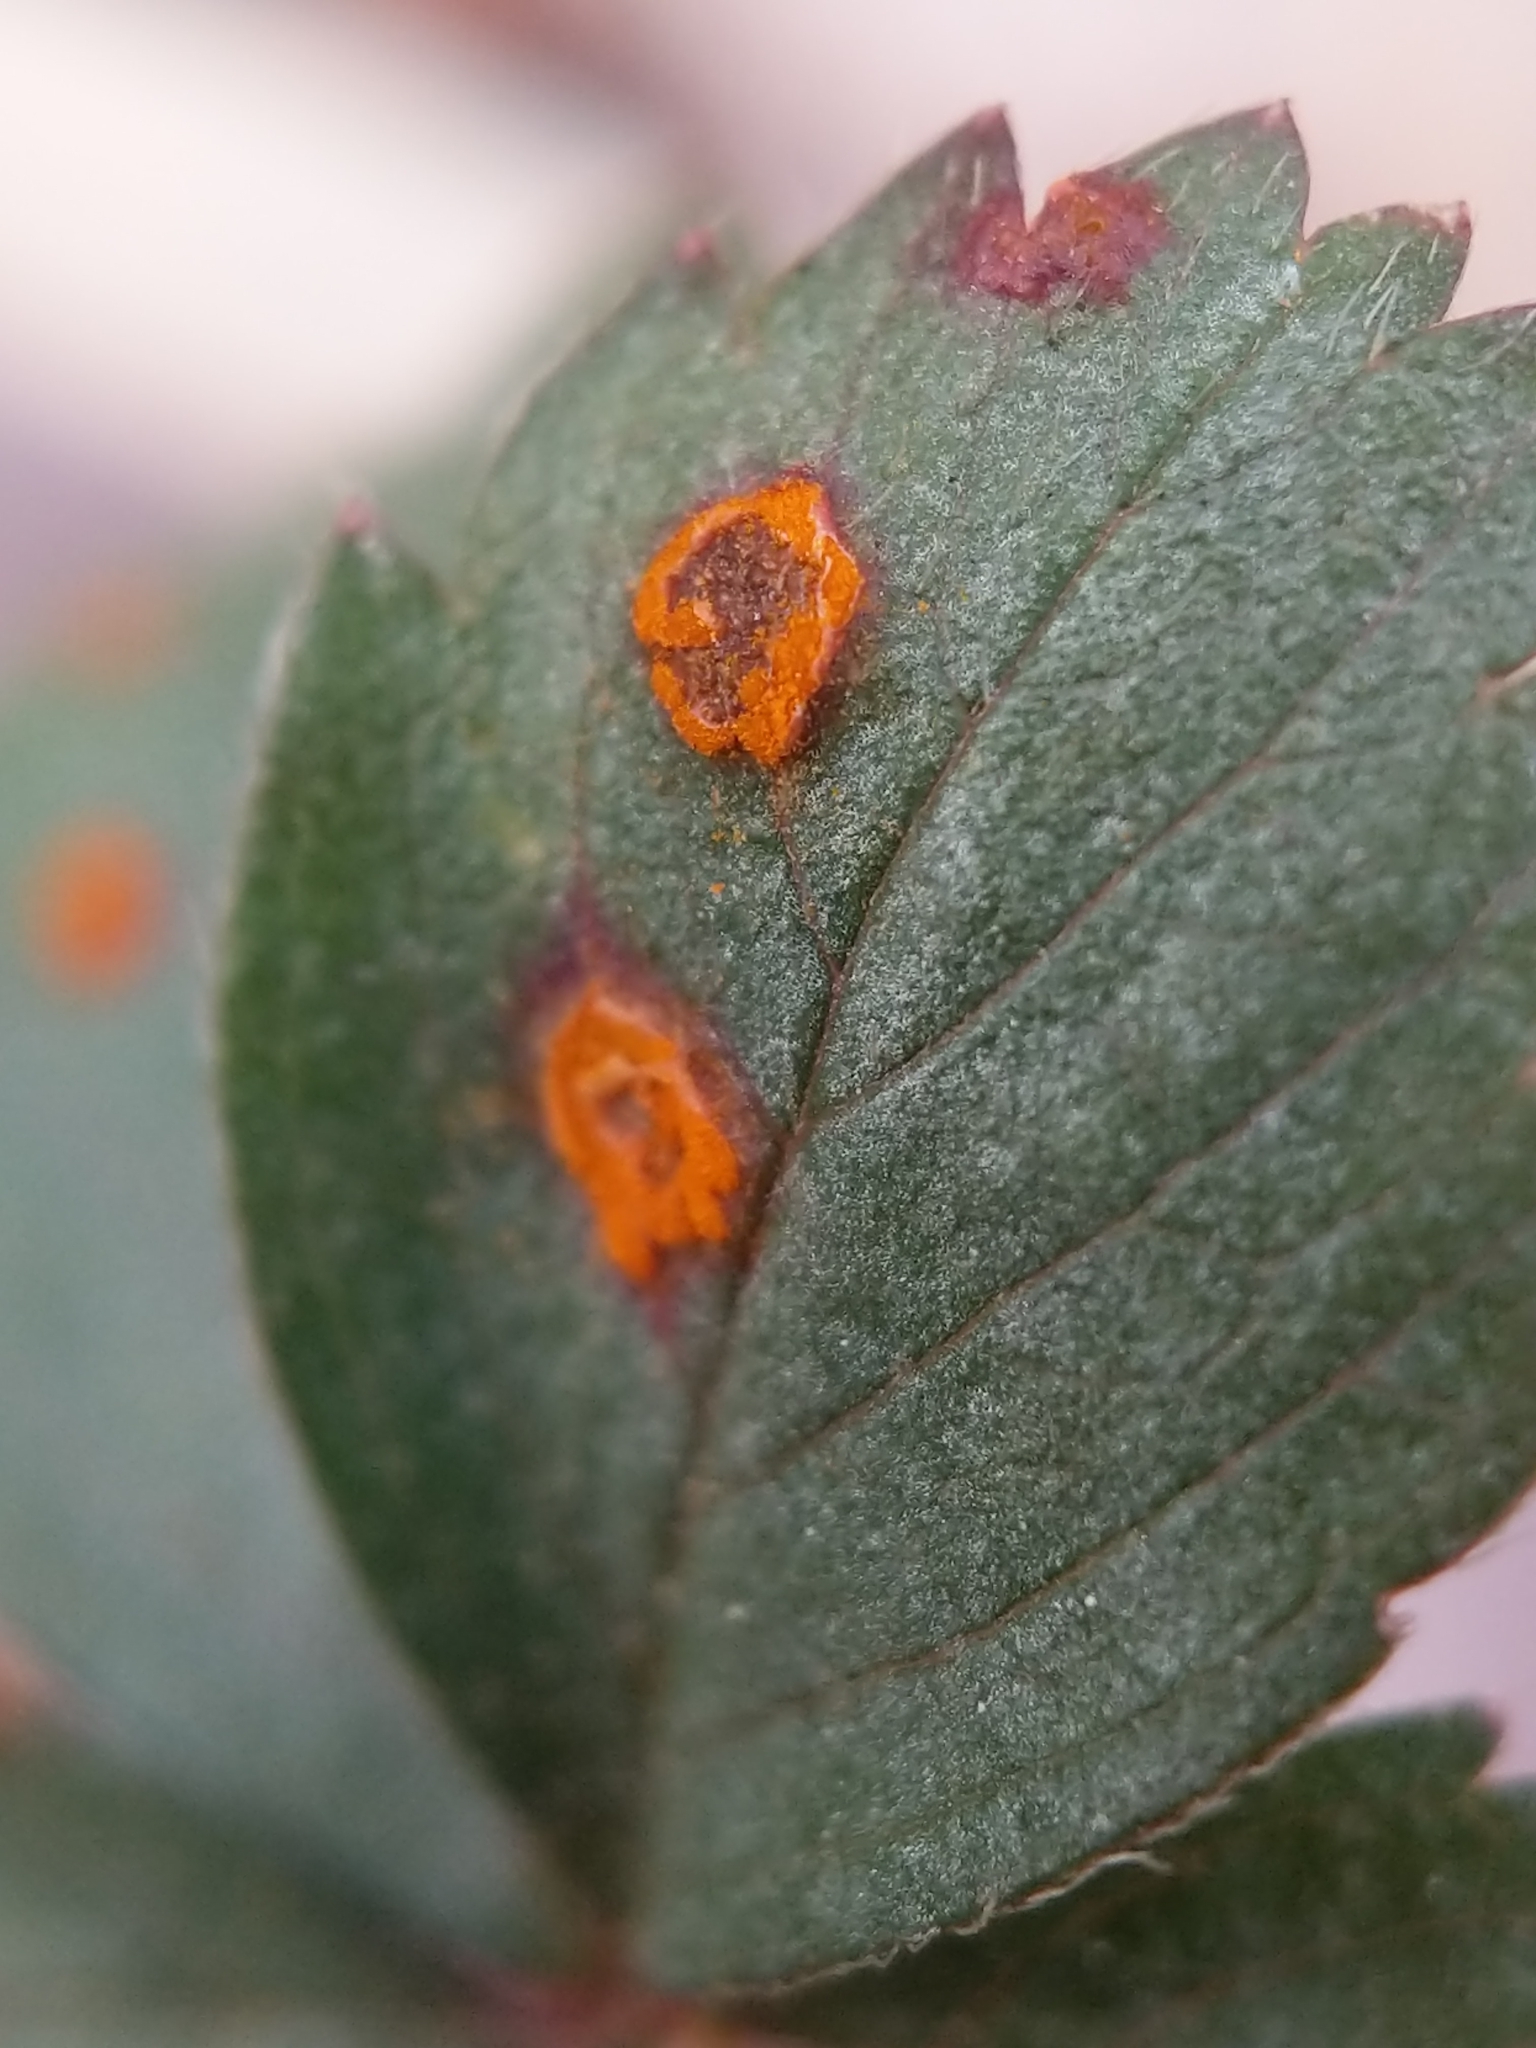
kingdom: Fungi
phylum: Basidiomycota
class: Pucciniomycetes
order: Pucciniales
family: Phragmidiaceae
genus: Phragmidium
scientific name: Phragmidium potentillae
